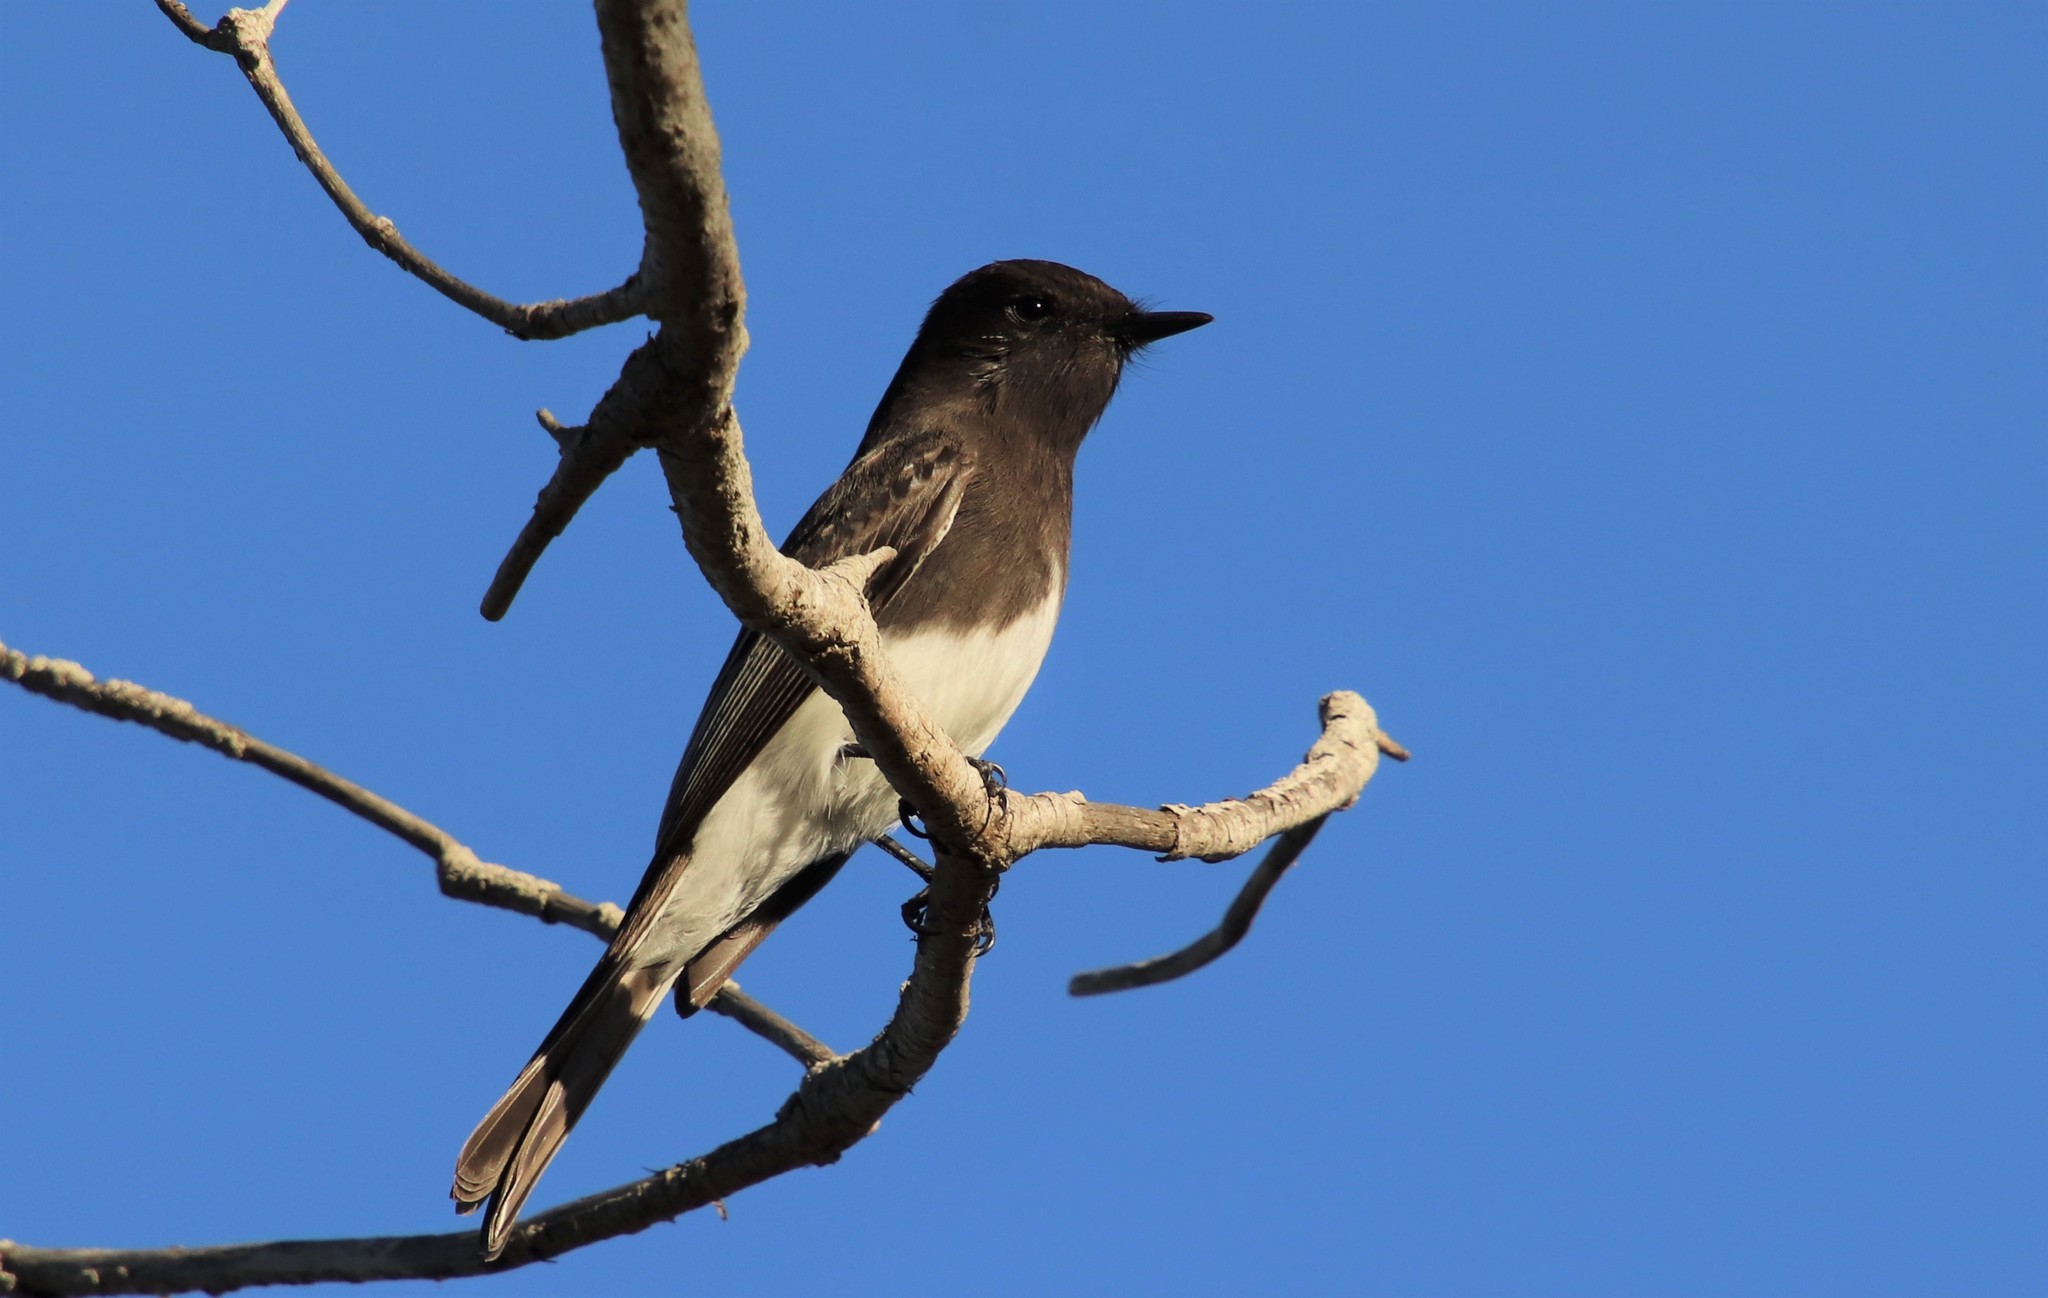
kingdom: Animalia
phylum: Chordata
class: Aves
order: Passeriformes
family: Tyrannidae
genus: Sayornis
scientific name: Sayornis nigricans
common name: Black phoebe
